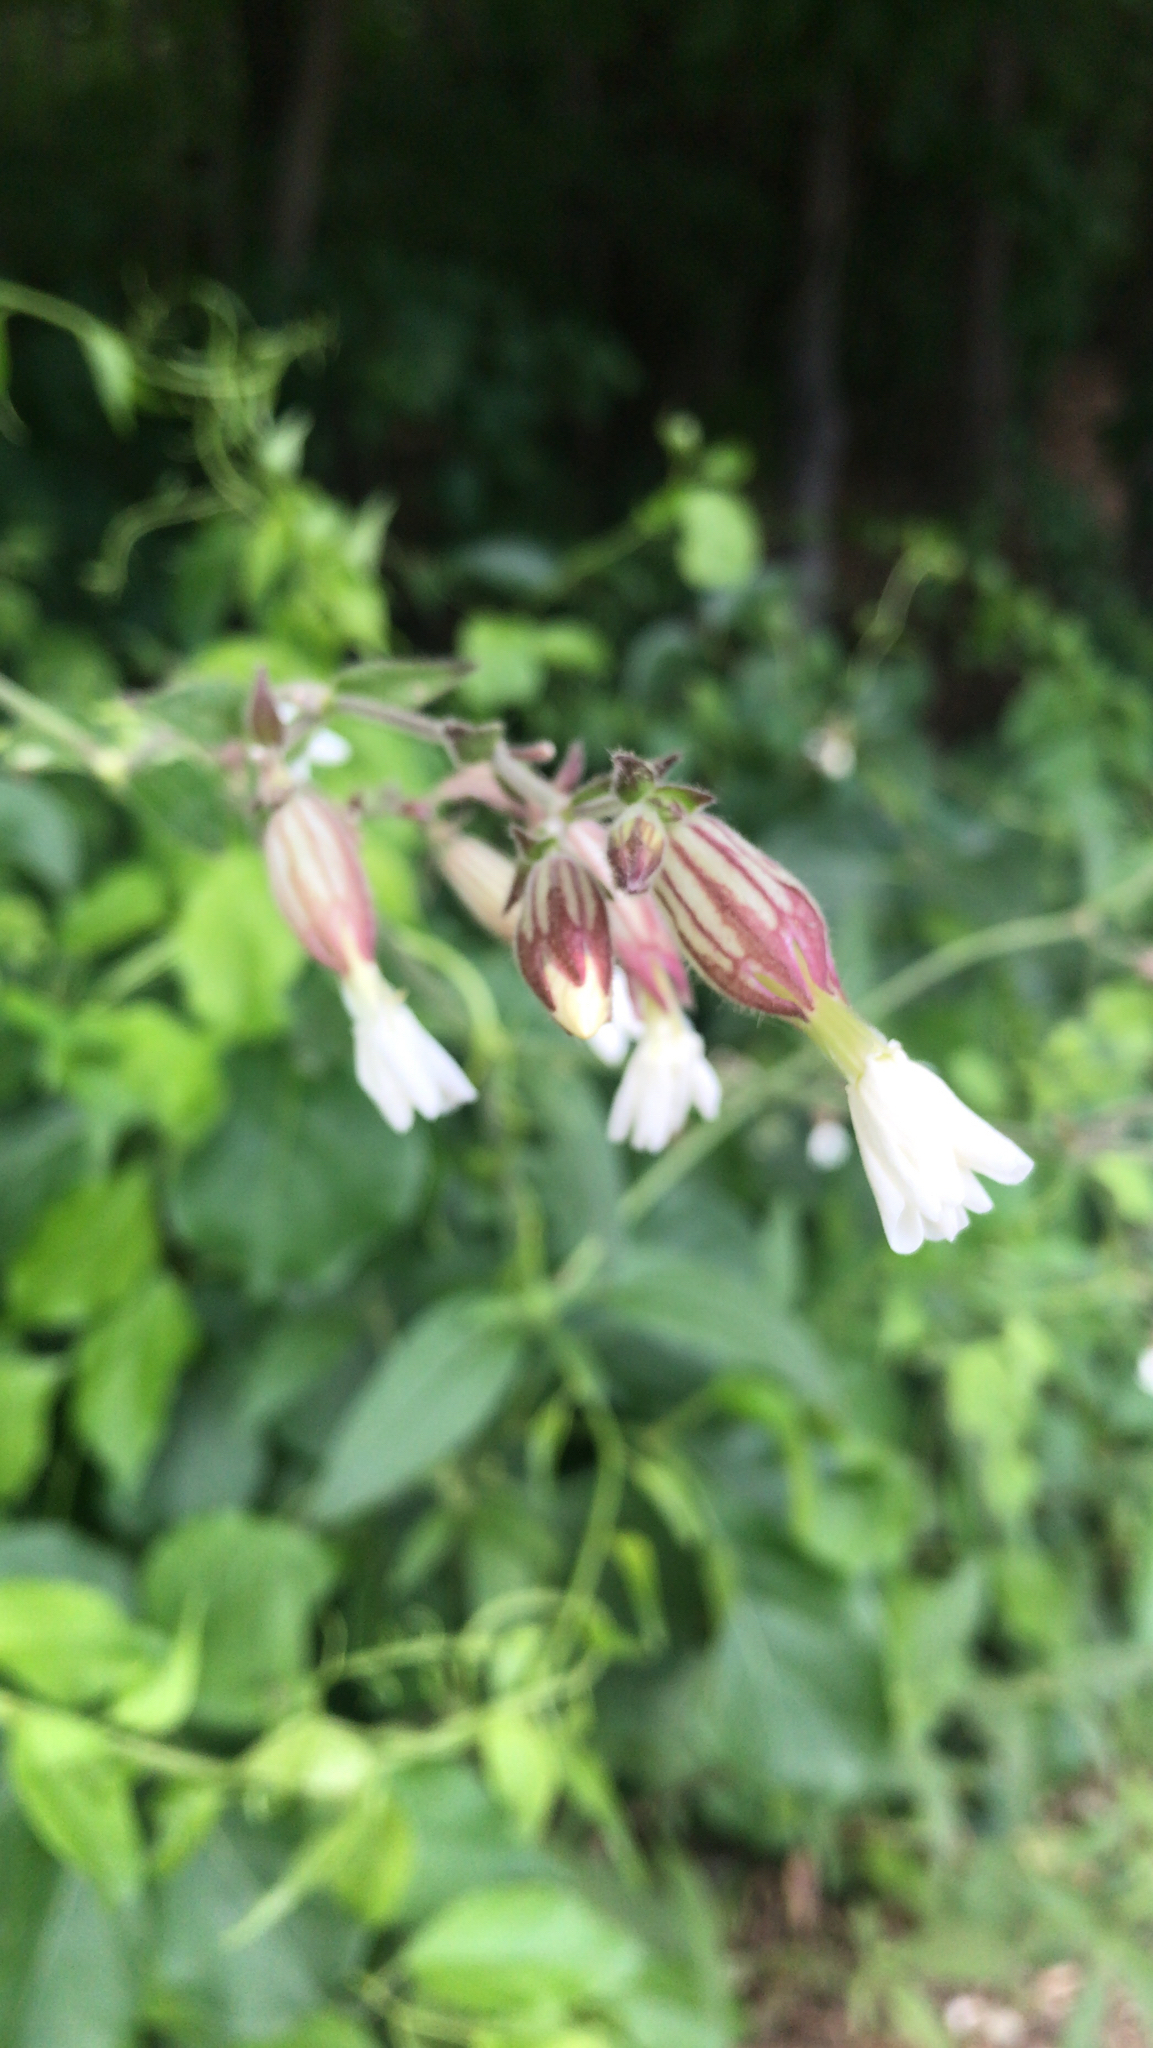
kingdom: Plantae
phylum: Tracheophyta
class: Magnoliopsida
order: Caryophyllales
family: Caryophyllaceae
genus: Silene
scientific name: Silene latifolia
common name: White campion
